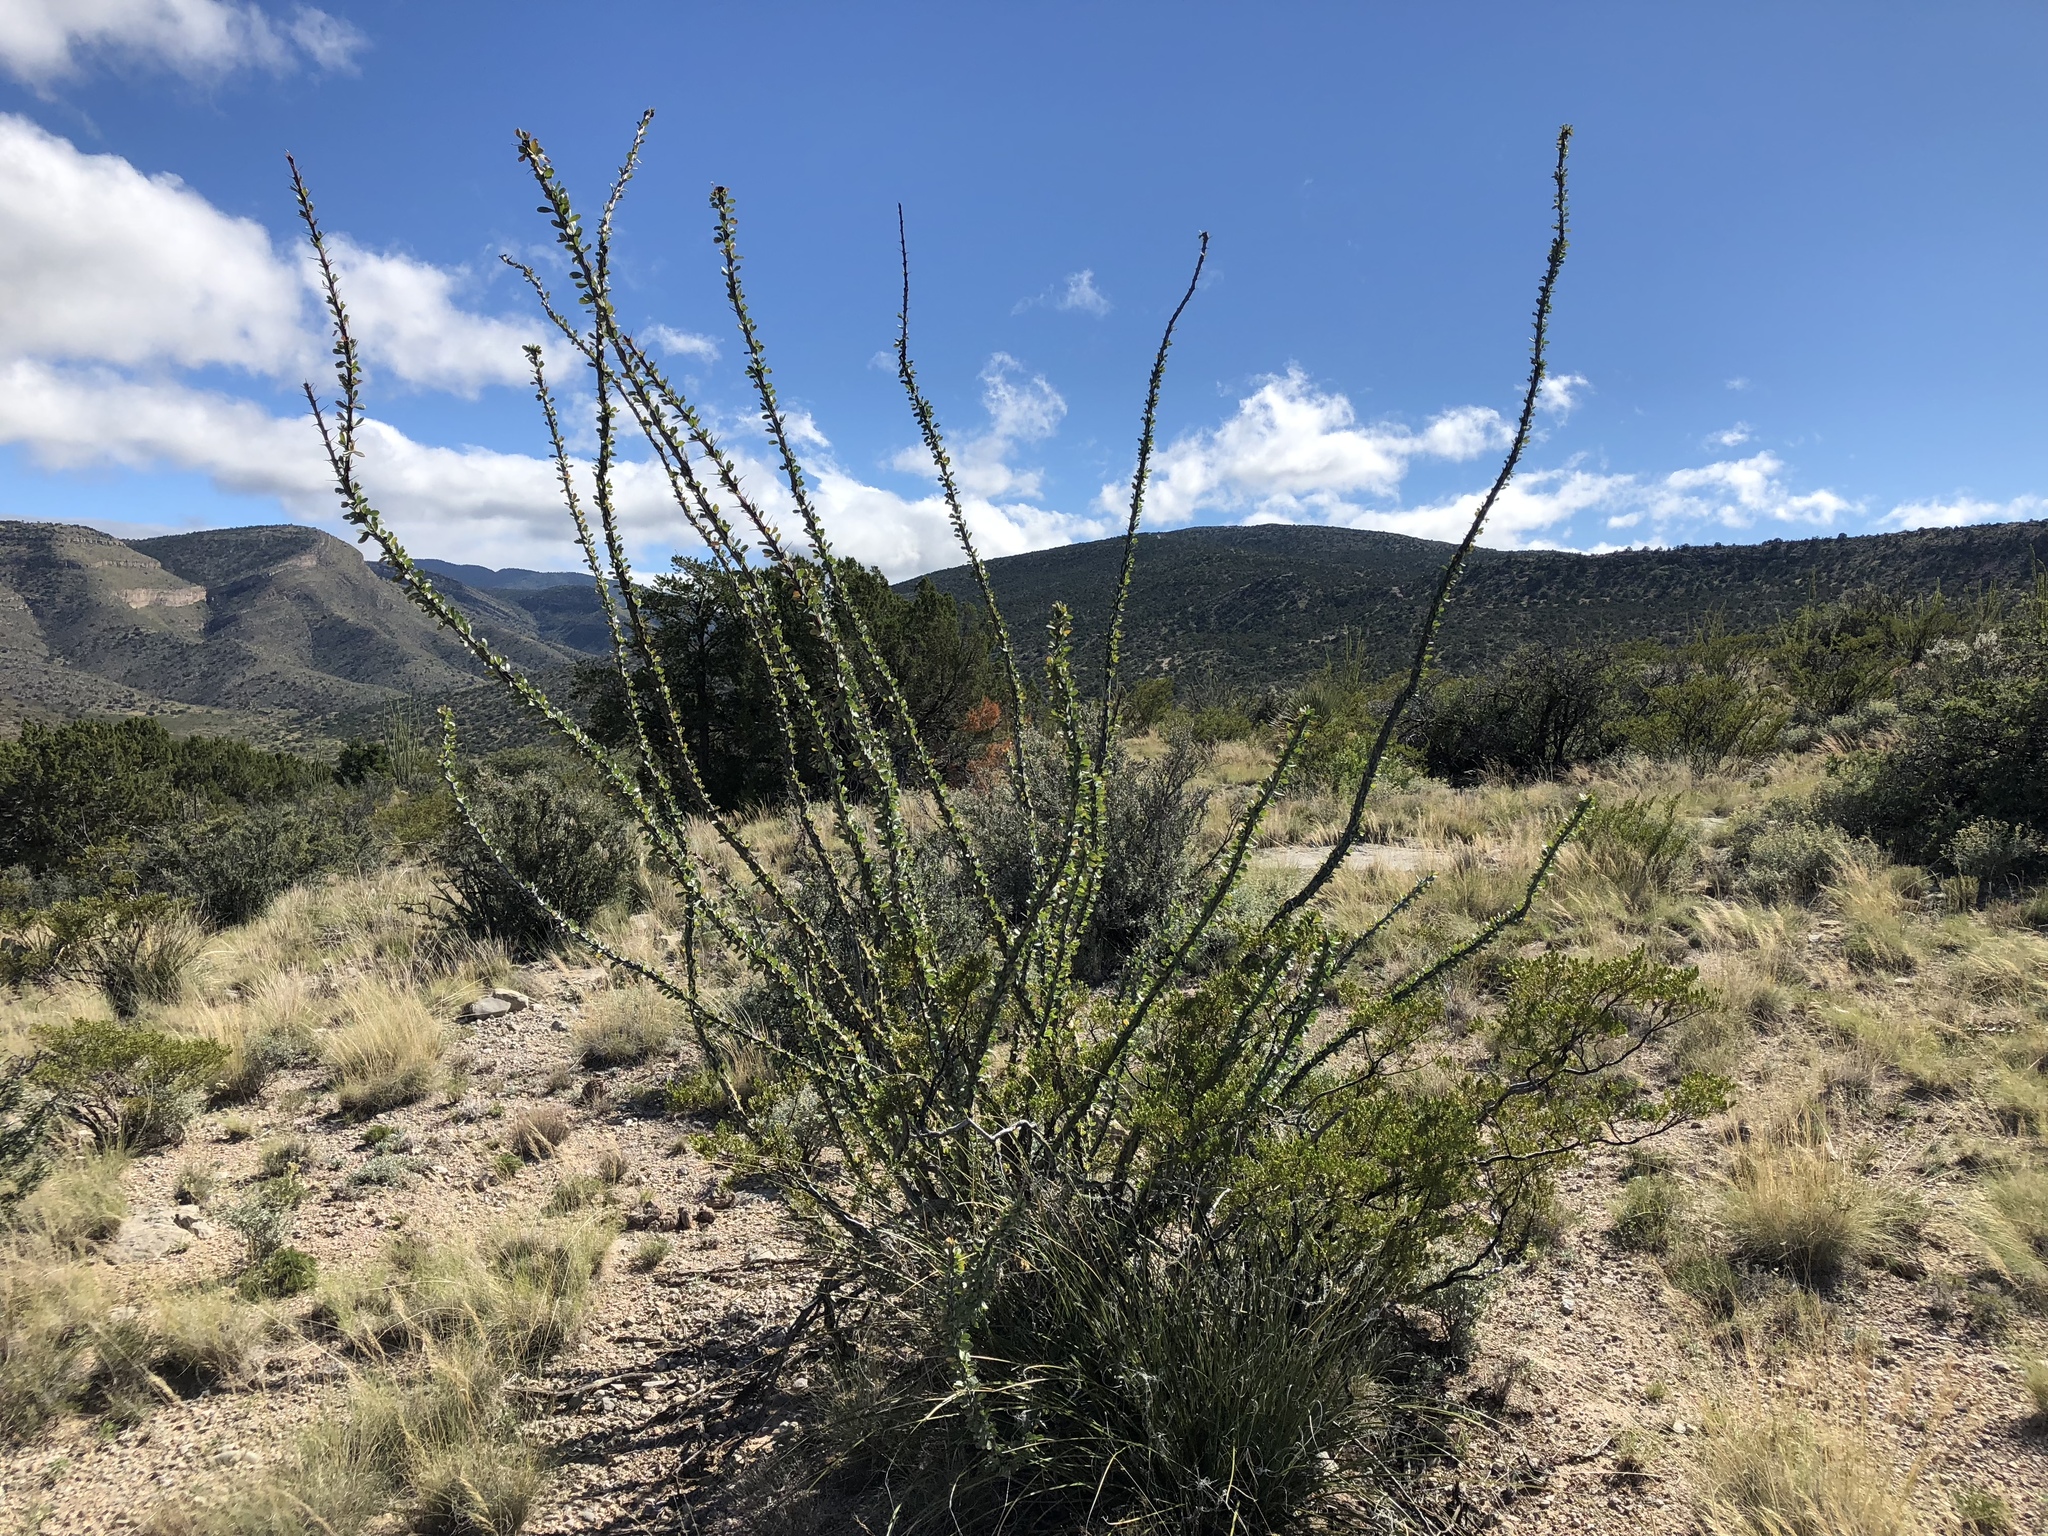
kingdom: Plantae
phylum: Tracheophyta
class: Magnoliopsida
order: Ericales
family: Fouquieriaceae
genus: Fouquieria
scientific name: Fouquieria splendens
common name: Vine-cactus
